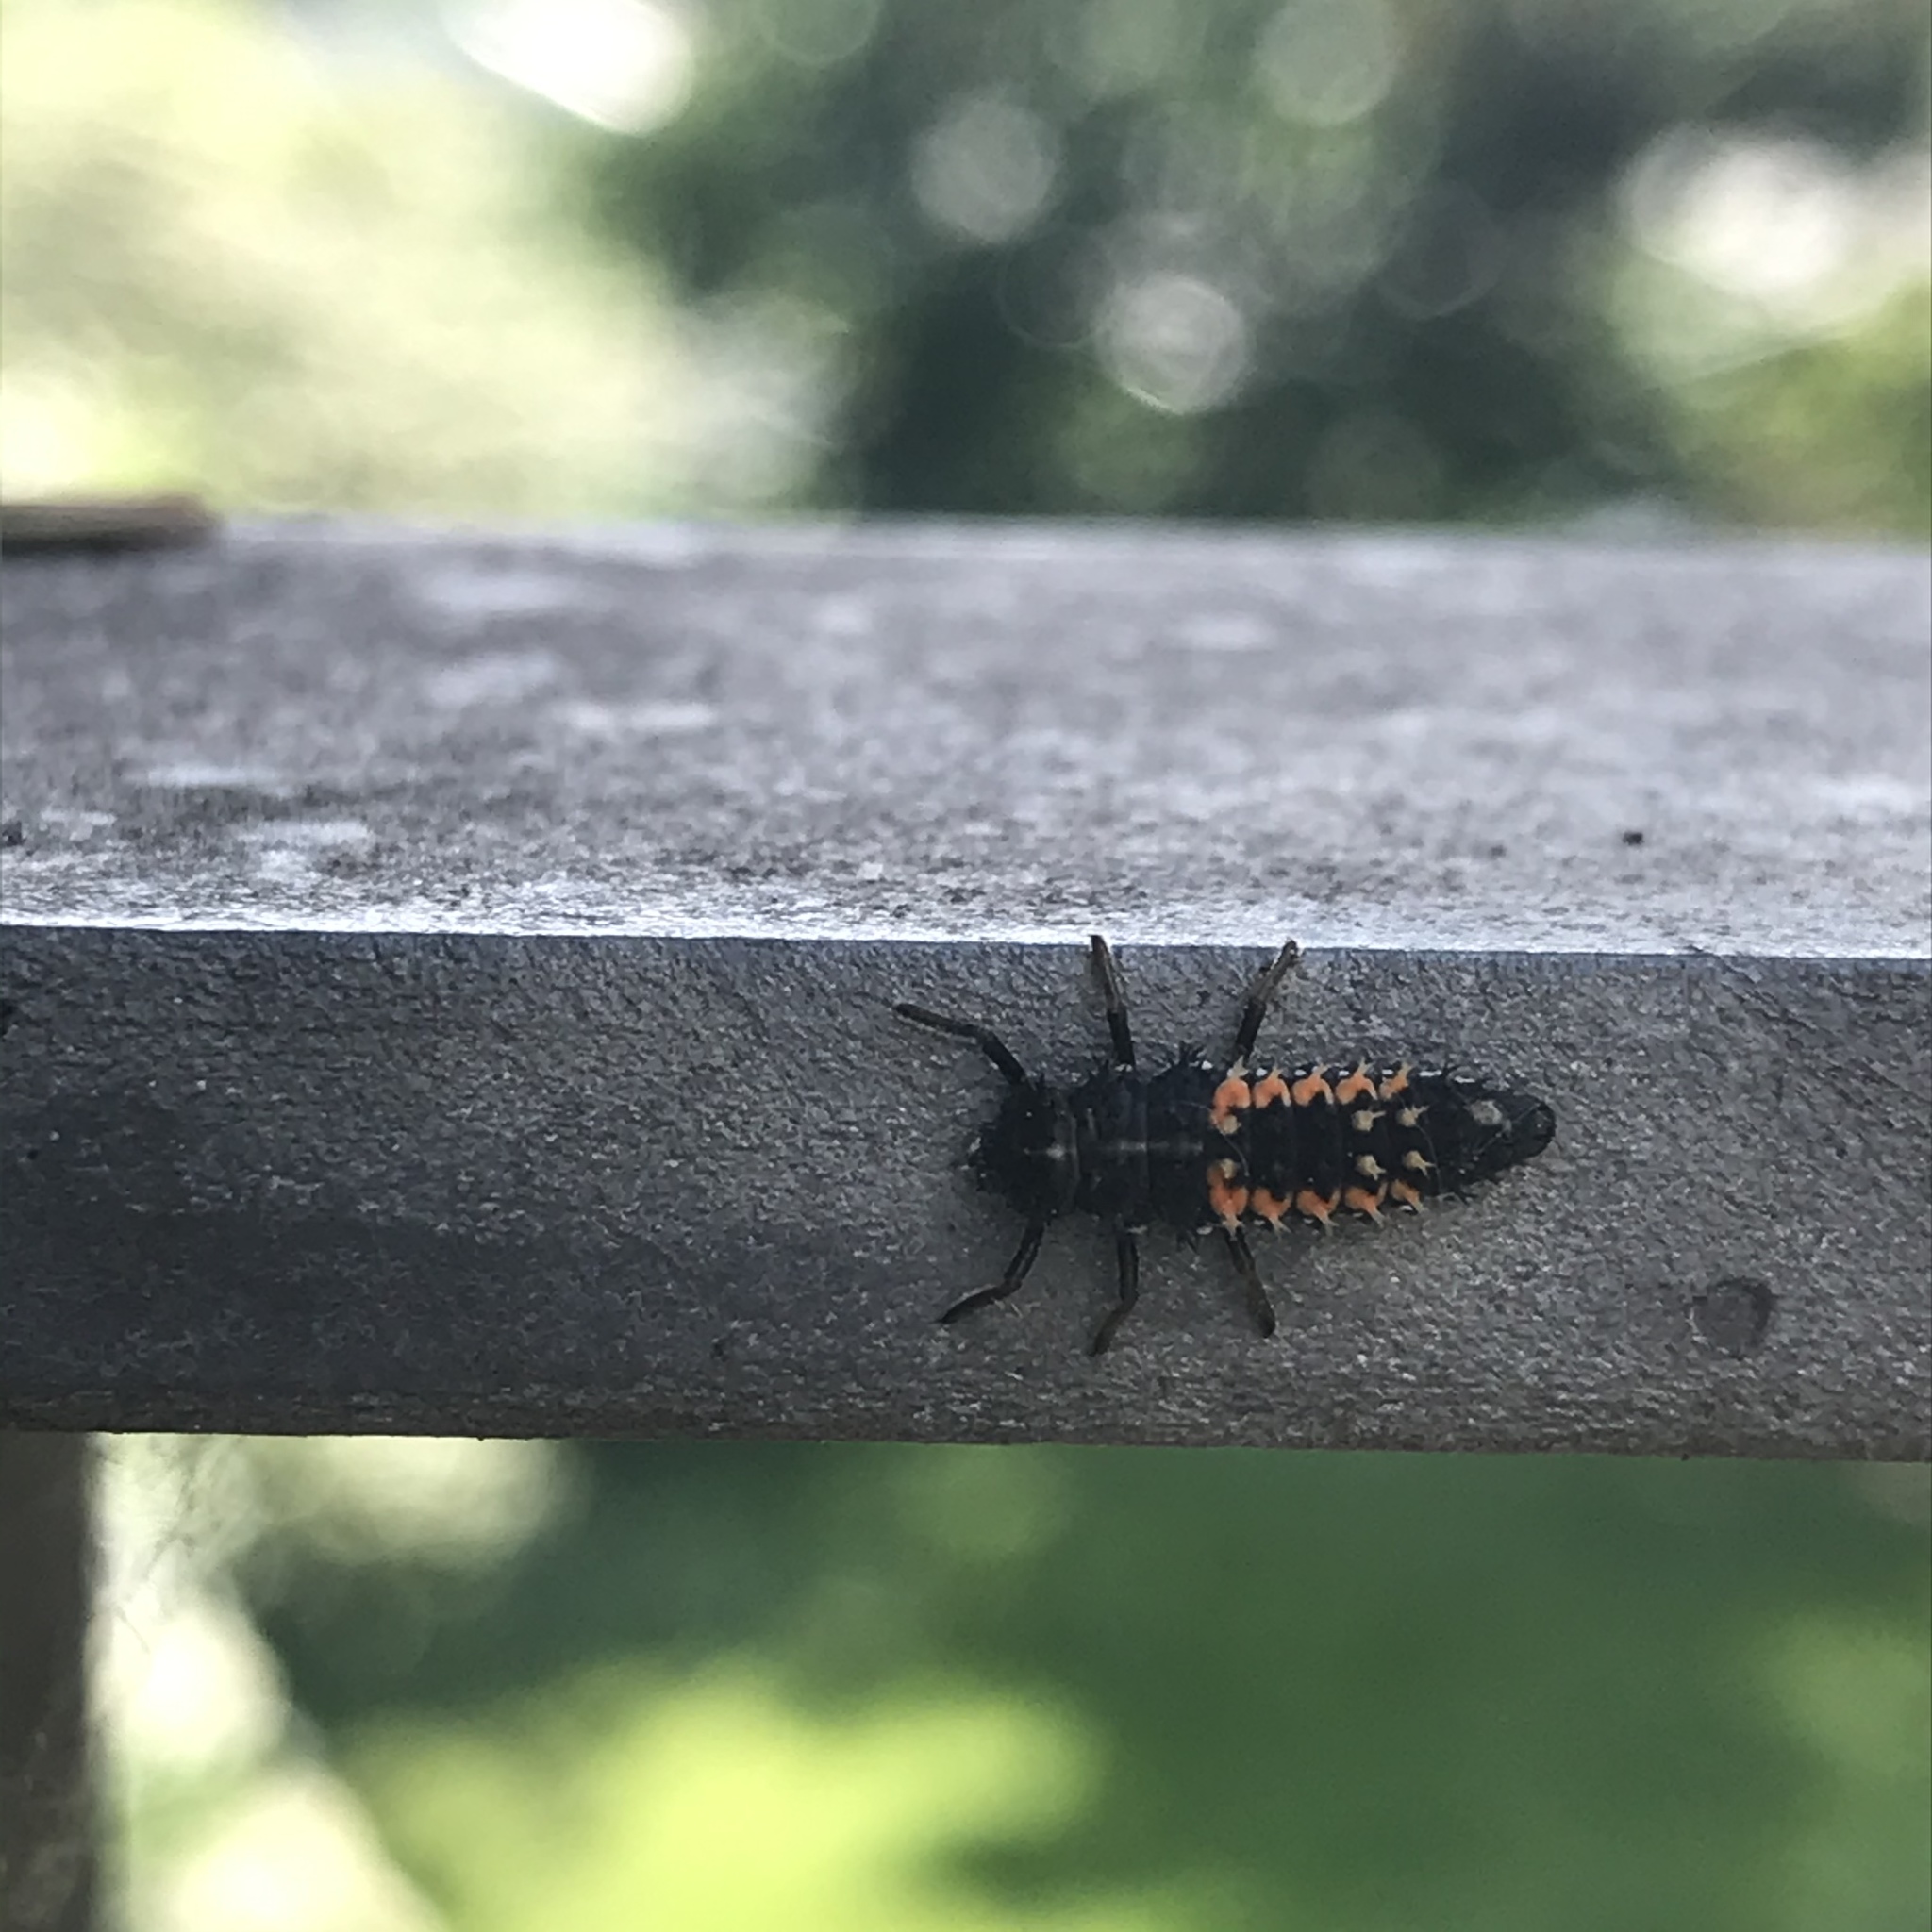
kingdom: Animalia
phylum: Arthropoda
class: Insecta
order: Coleoptera
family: Coccinellidae
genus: Harmonia
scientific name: Harmonia axyridis
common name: Harlequin ladybird
